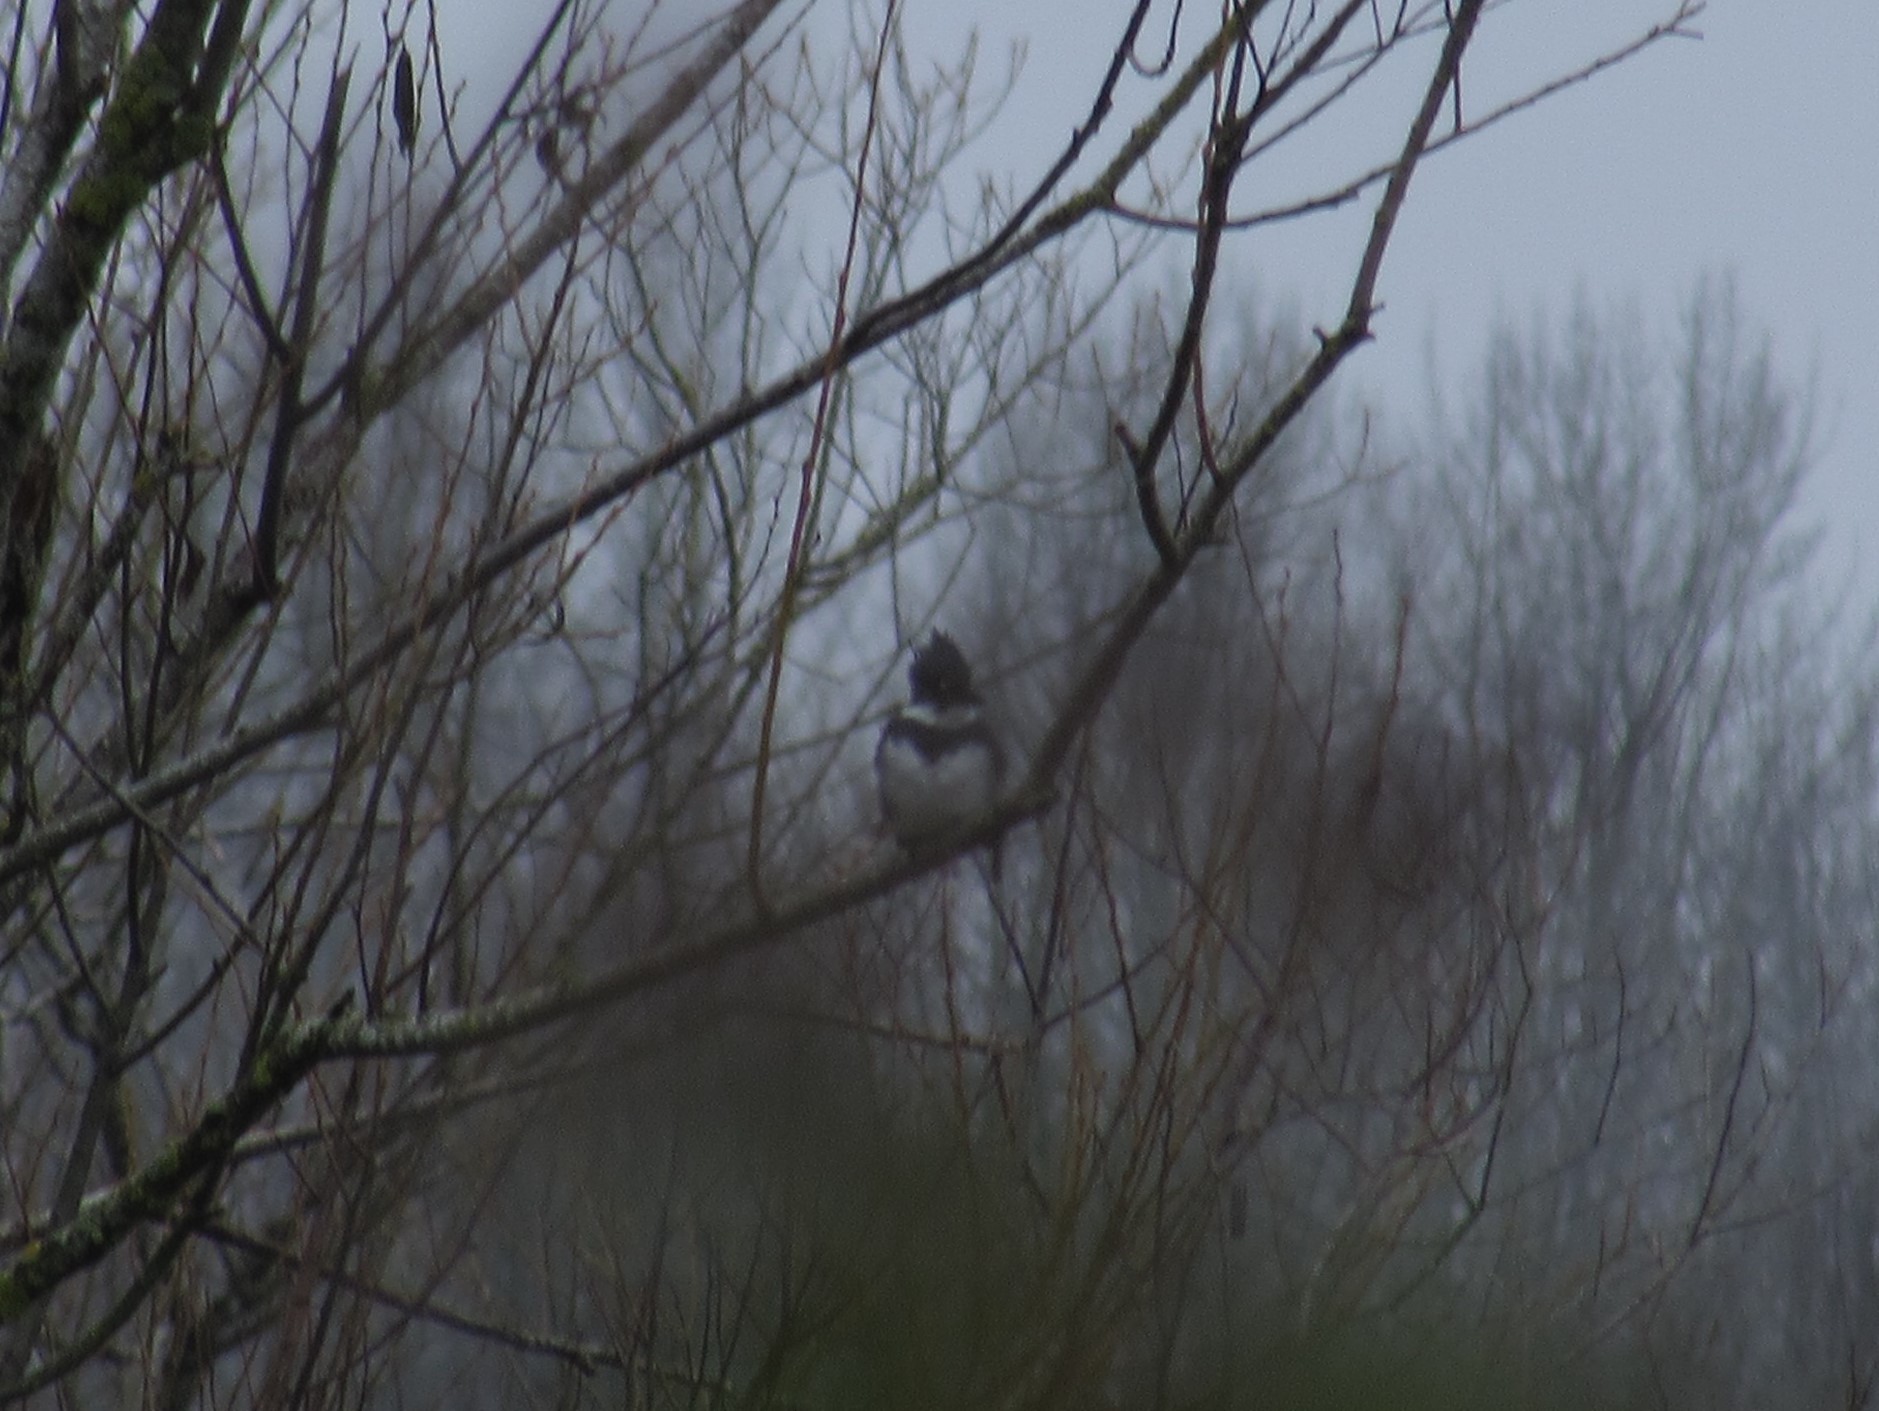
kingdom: Animalia
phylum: Chordata
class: Aves
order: Coraciiformes
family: Alcedinidae
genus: Megaceryle
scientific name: Megaceryle alcyon
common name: Belted kingfisher
